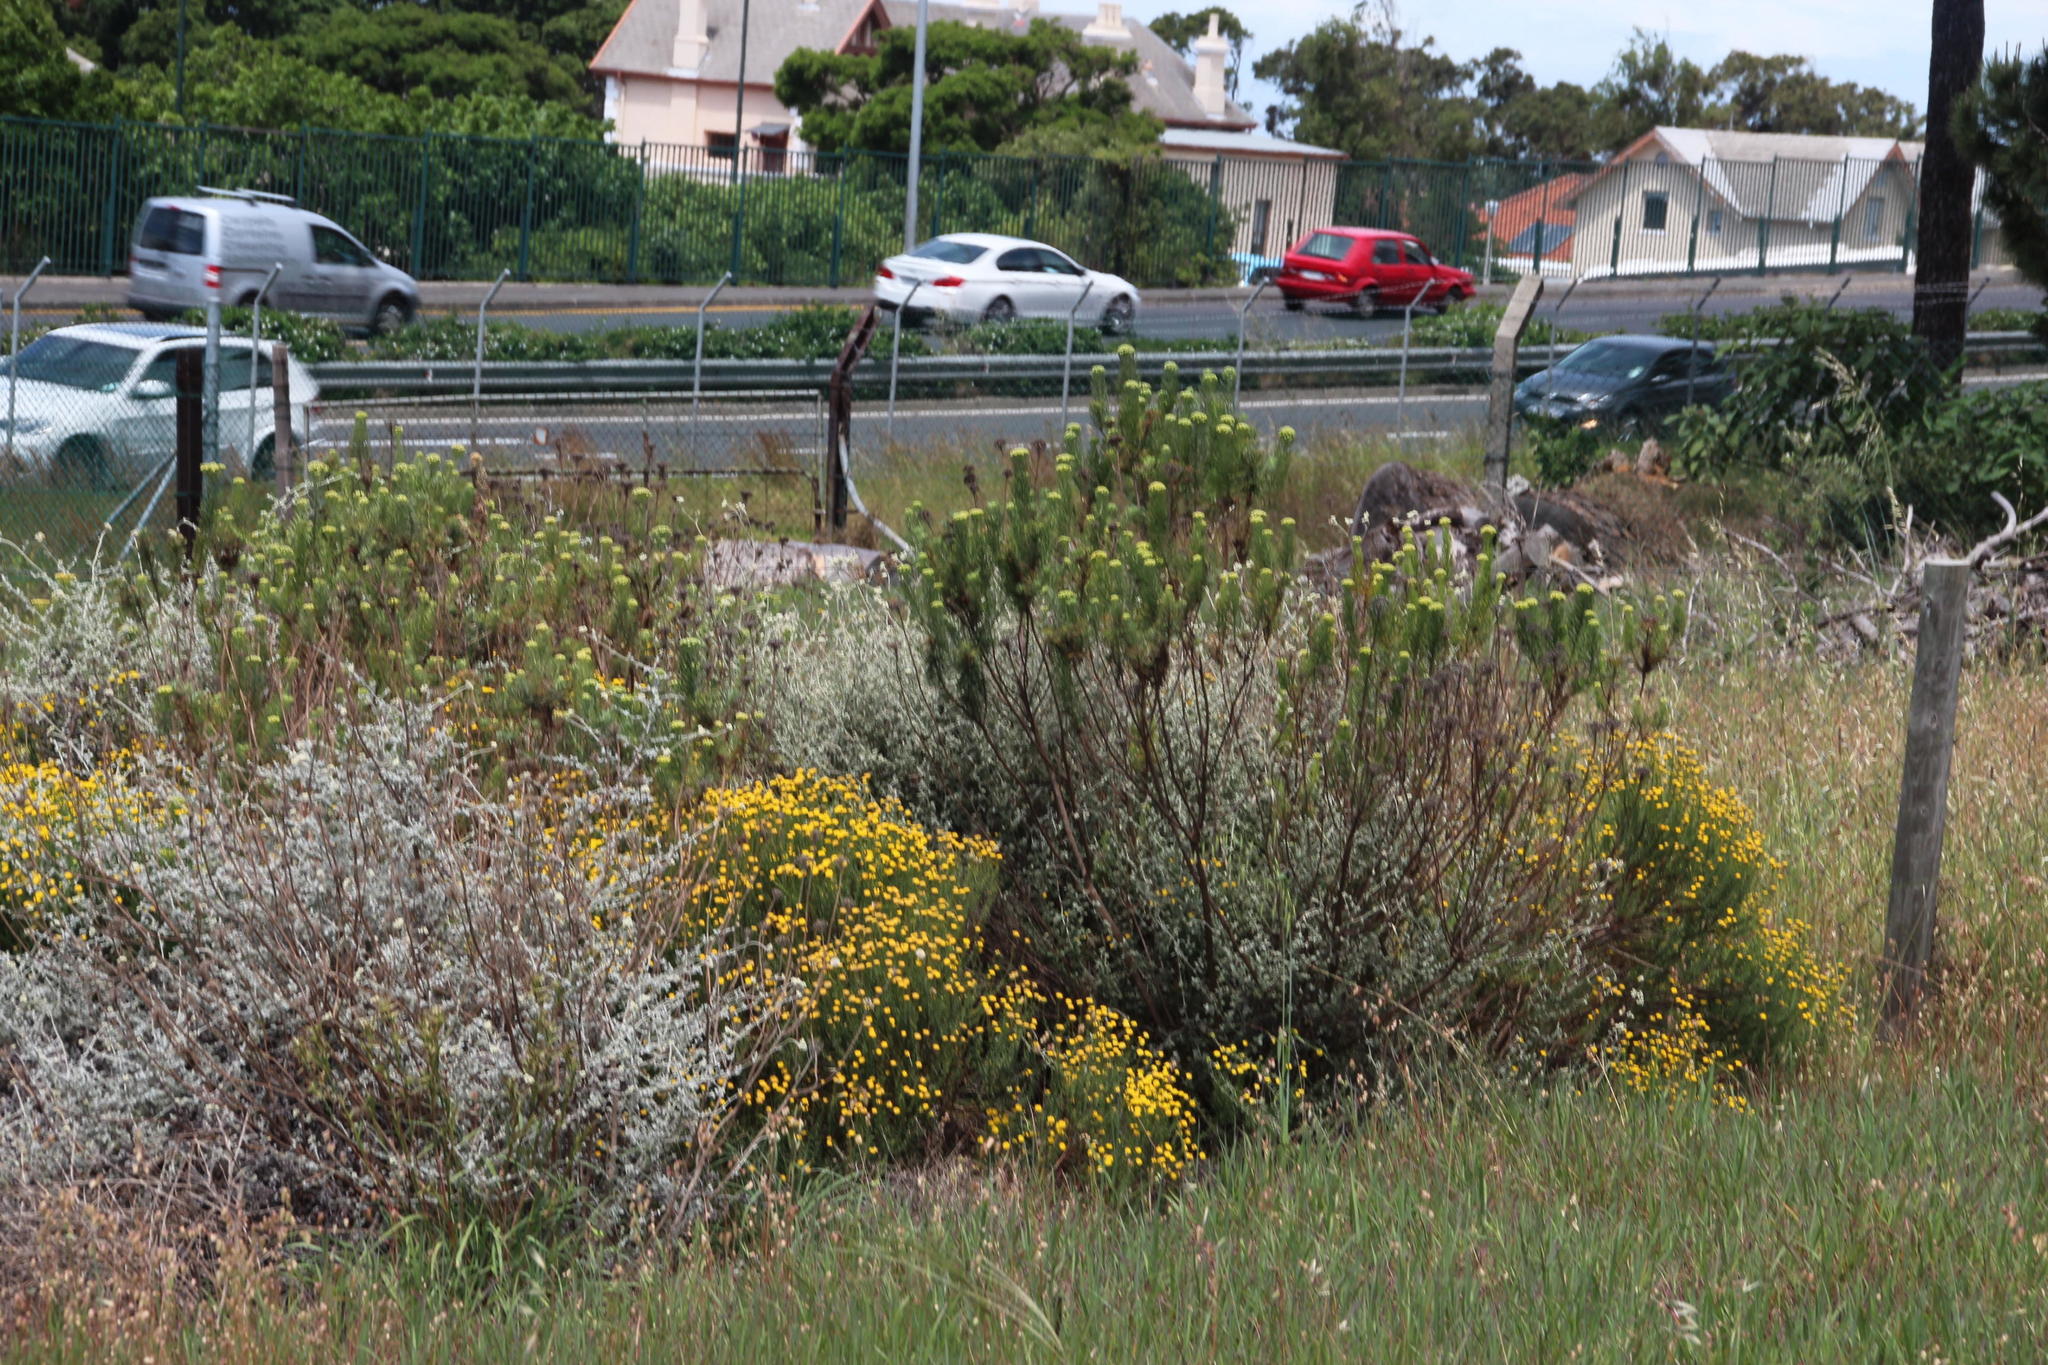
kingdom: Plantae
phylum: Tracheophyta
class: Magnoliopsida
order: Asterales
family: Asteraceae
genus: Hymenolepis
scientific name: Hymenolepis crithmifolia
